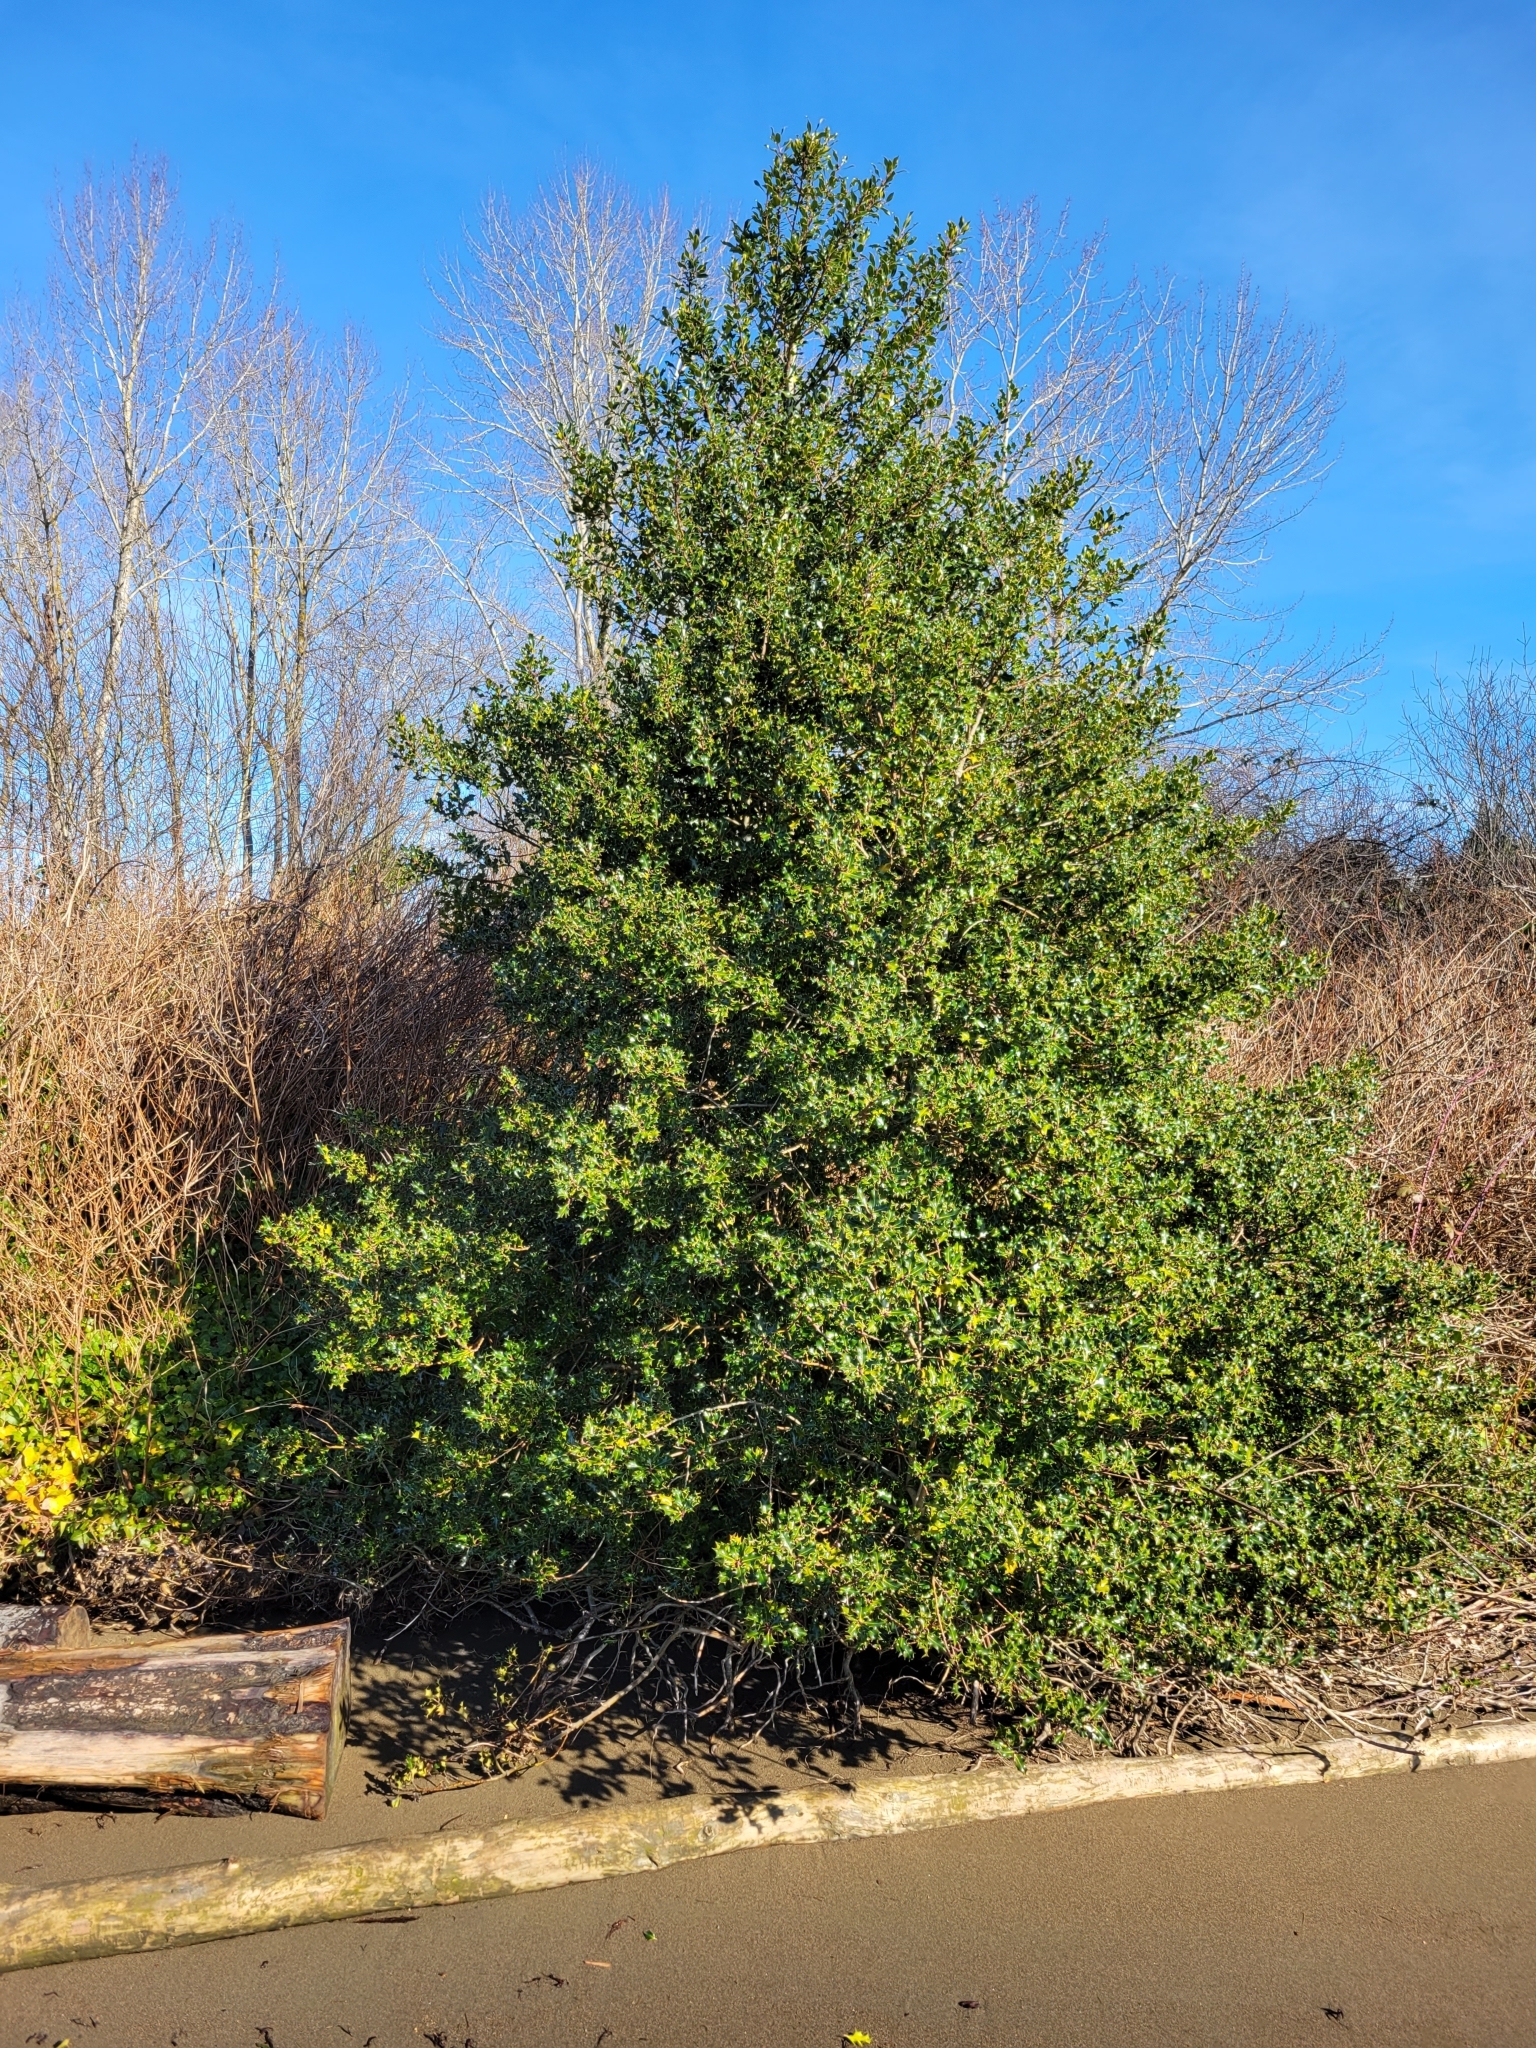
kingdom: Plantae
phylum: Tracheophyta
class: Magnoliopsida
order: Aquifoliales
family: Aquifoliaceae
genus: Ilex
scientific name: Ilex aquifolium
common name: English holly
